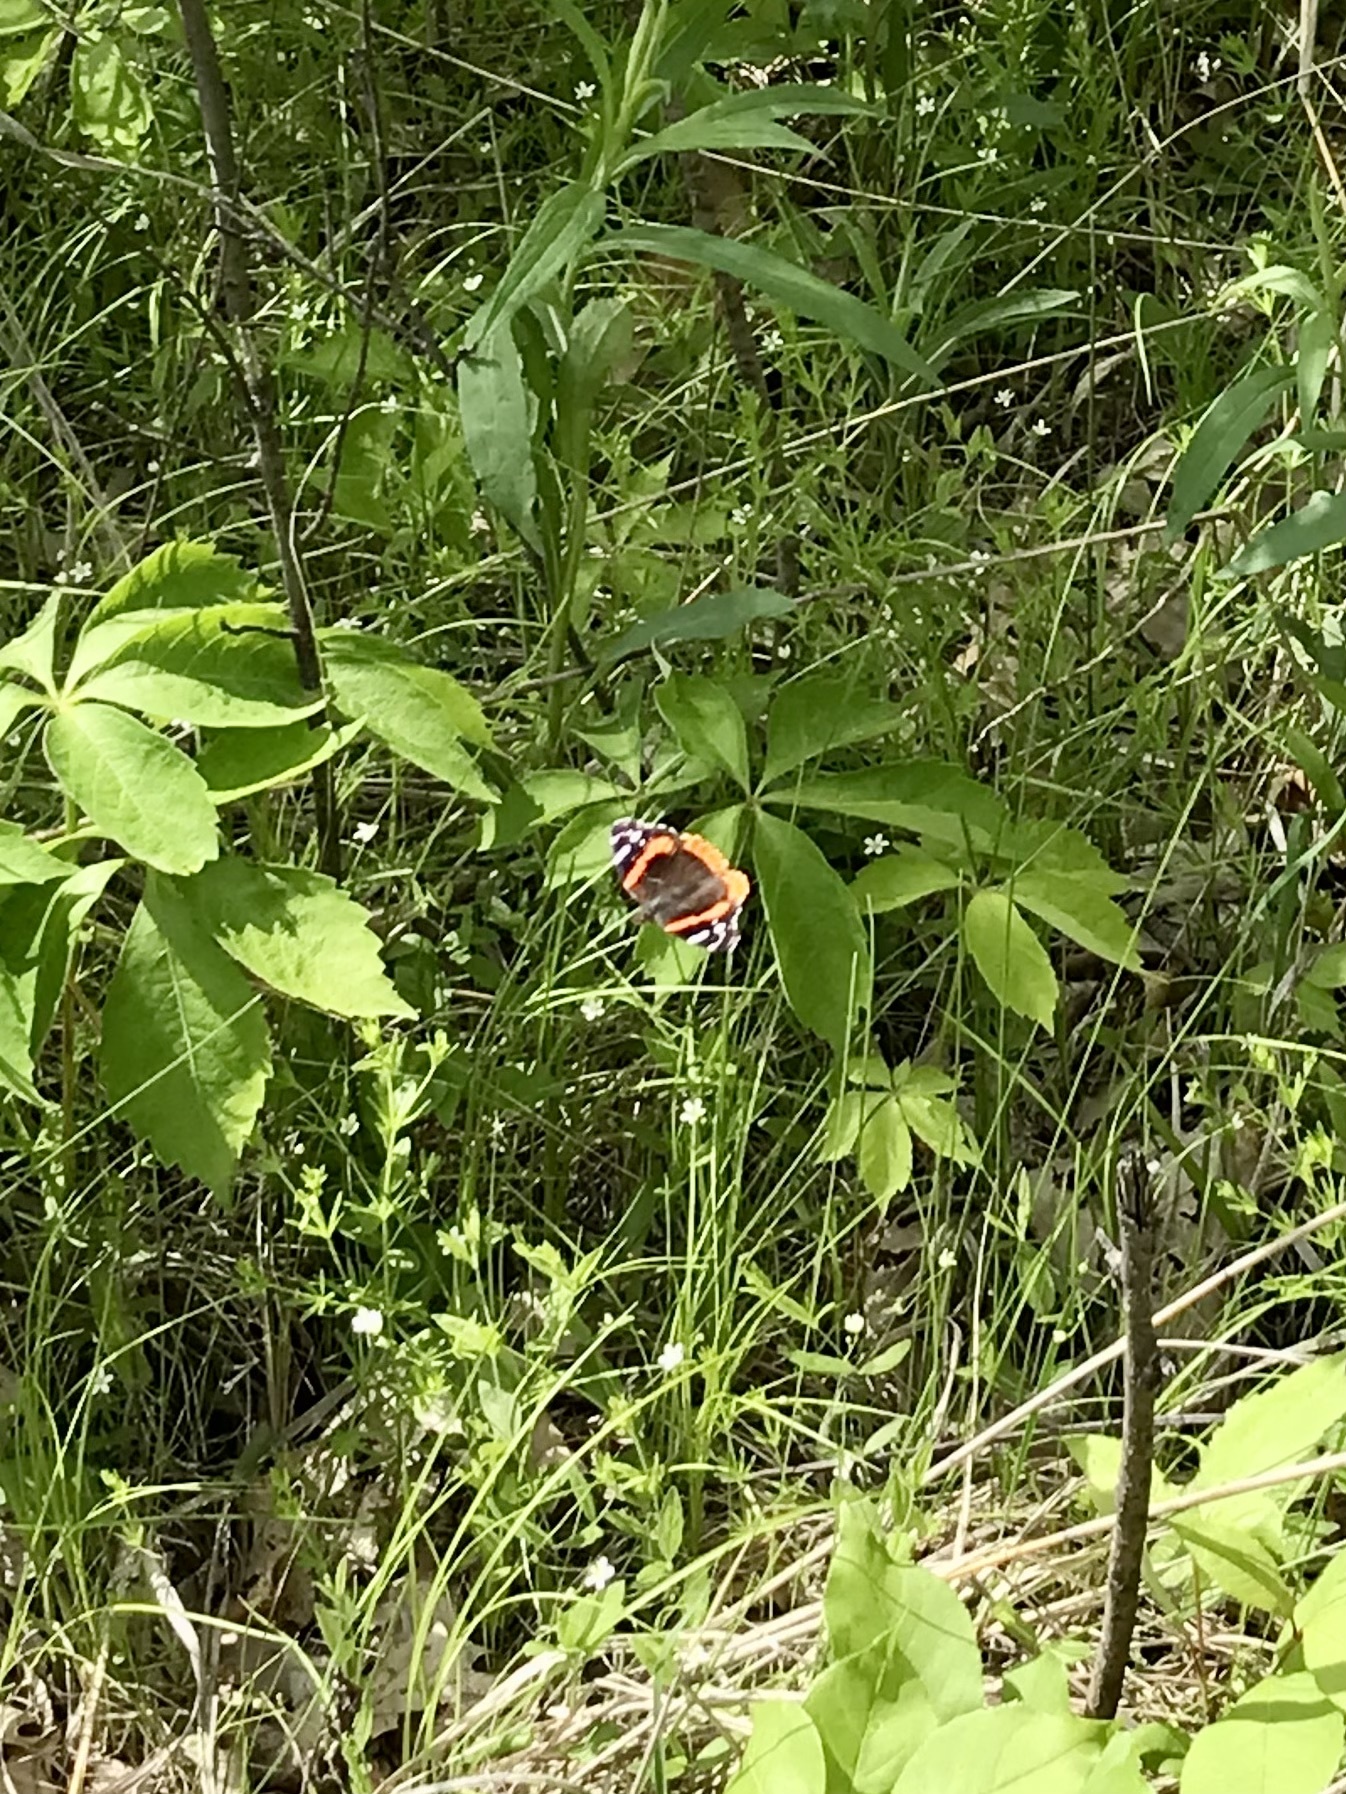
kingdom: Animalia
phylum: Arthropoda
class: Insecta
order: Lepidoptera
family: Nymphalidae
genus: Vanessa
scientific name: Vanessa atalanta
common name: Red admiral
